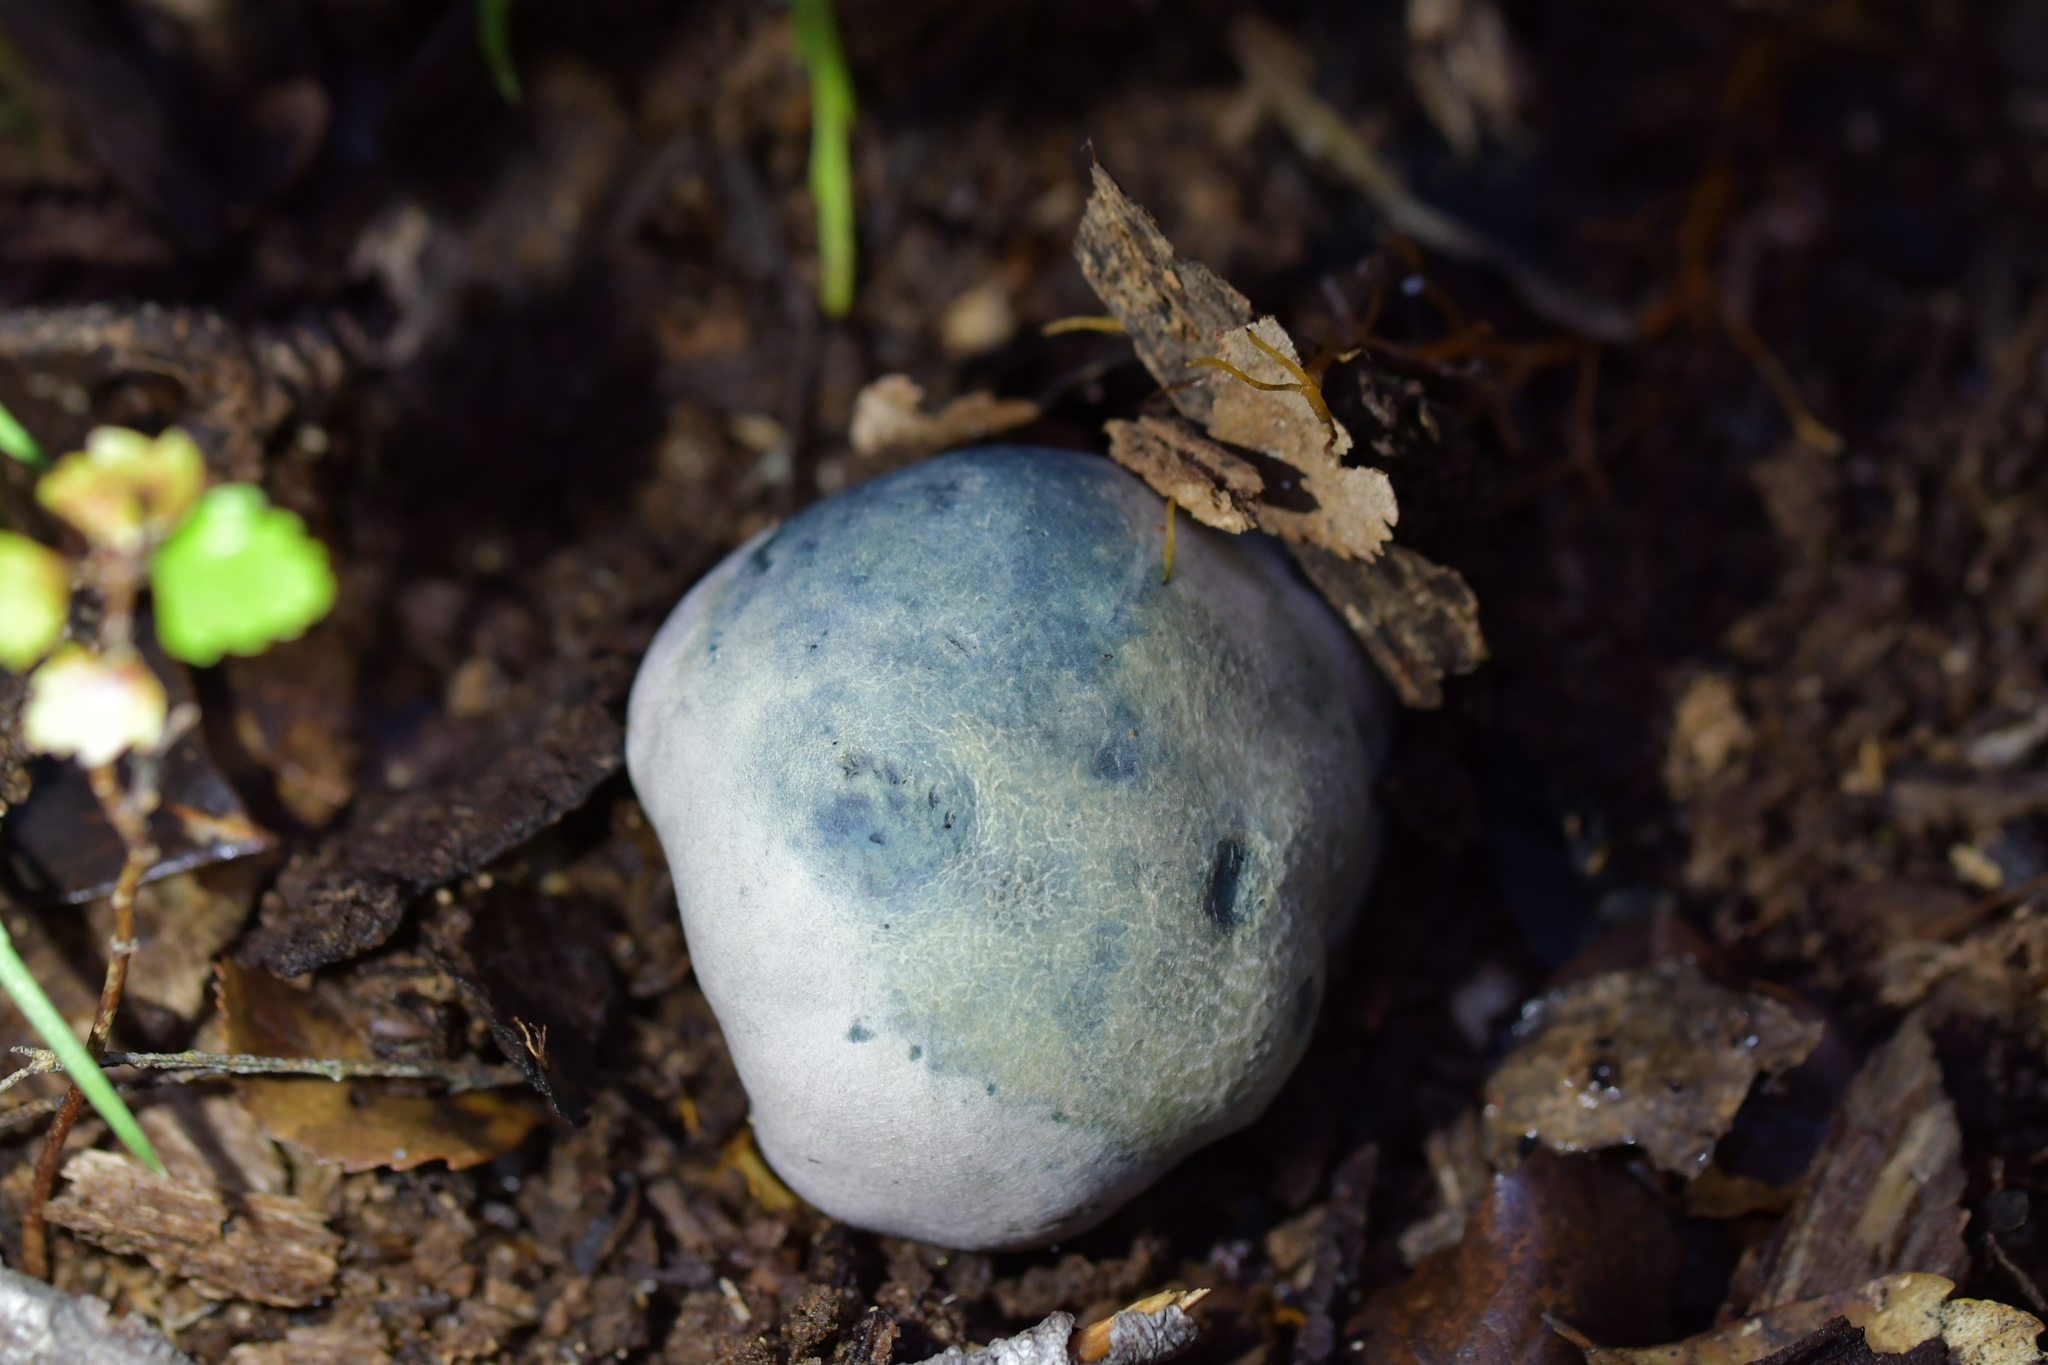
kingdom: Fungi
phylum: Basidiomycota
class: Agaricomycetes
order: Boletales
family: Boletaceae
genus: Leccinum
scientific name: Leccinum pachyderme
